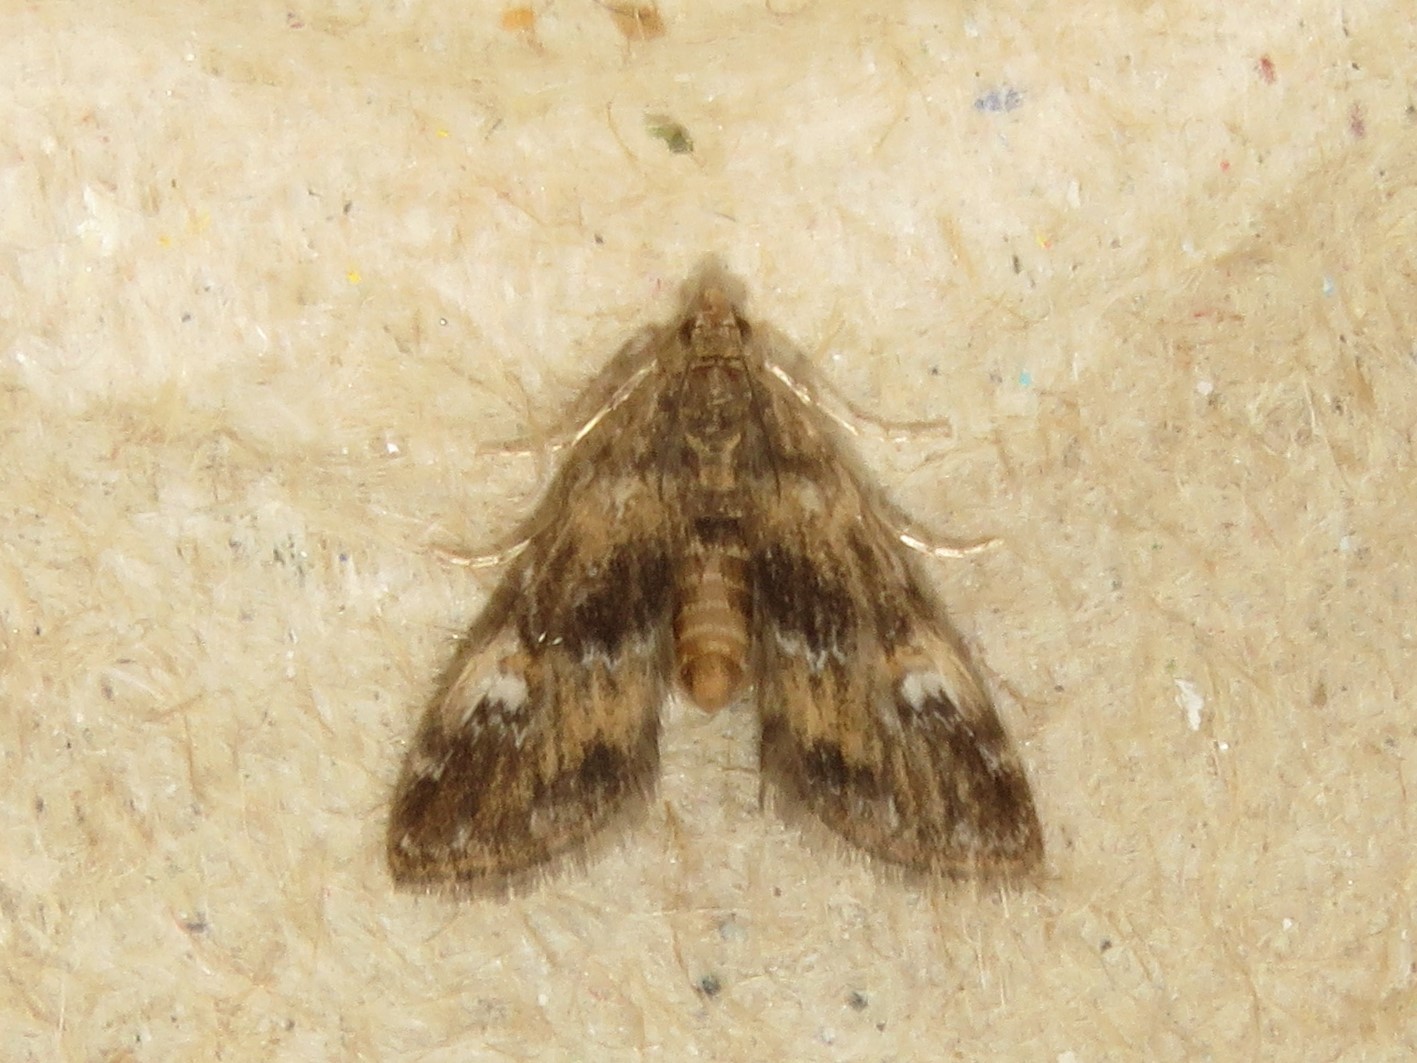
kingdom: Animalia
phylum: Arthropoda
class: Insecta
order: Lepidoptera
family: Crambidae
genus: Elophila
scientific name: Elophila obliteralis
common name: Waterlily leafcutter moth
